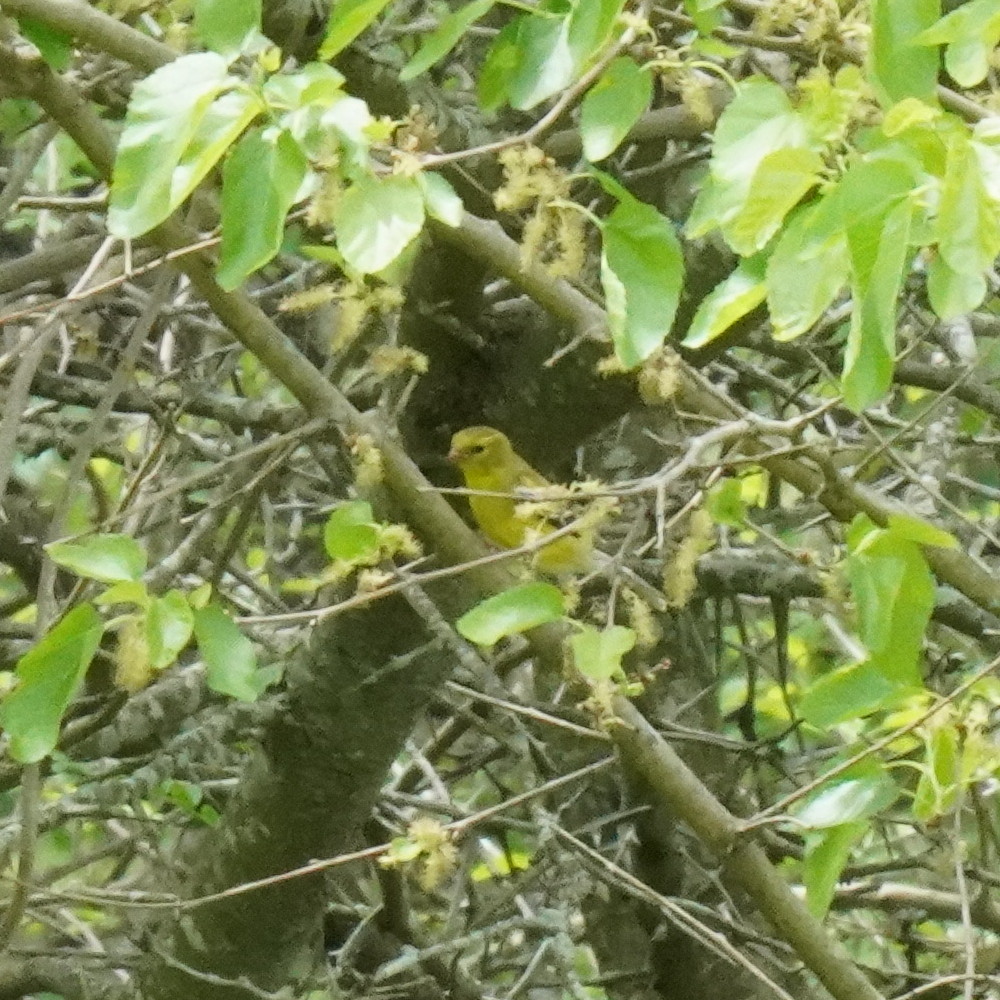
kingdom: Animalia
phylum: Chordata
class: Aves
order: Passeriformes
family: Fringillidae
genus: Spinus
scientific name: Spinus tristis
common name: American goldfinch
